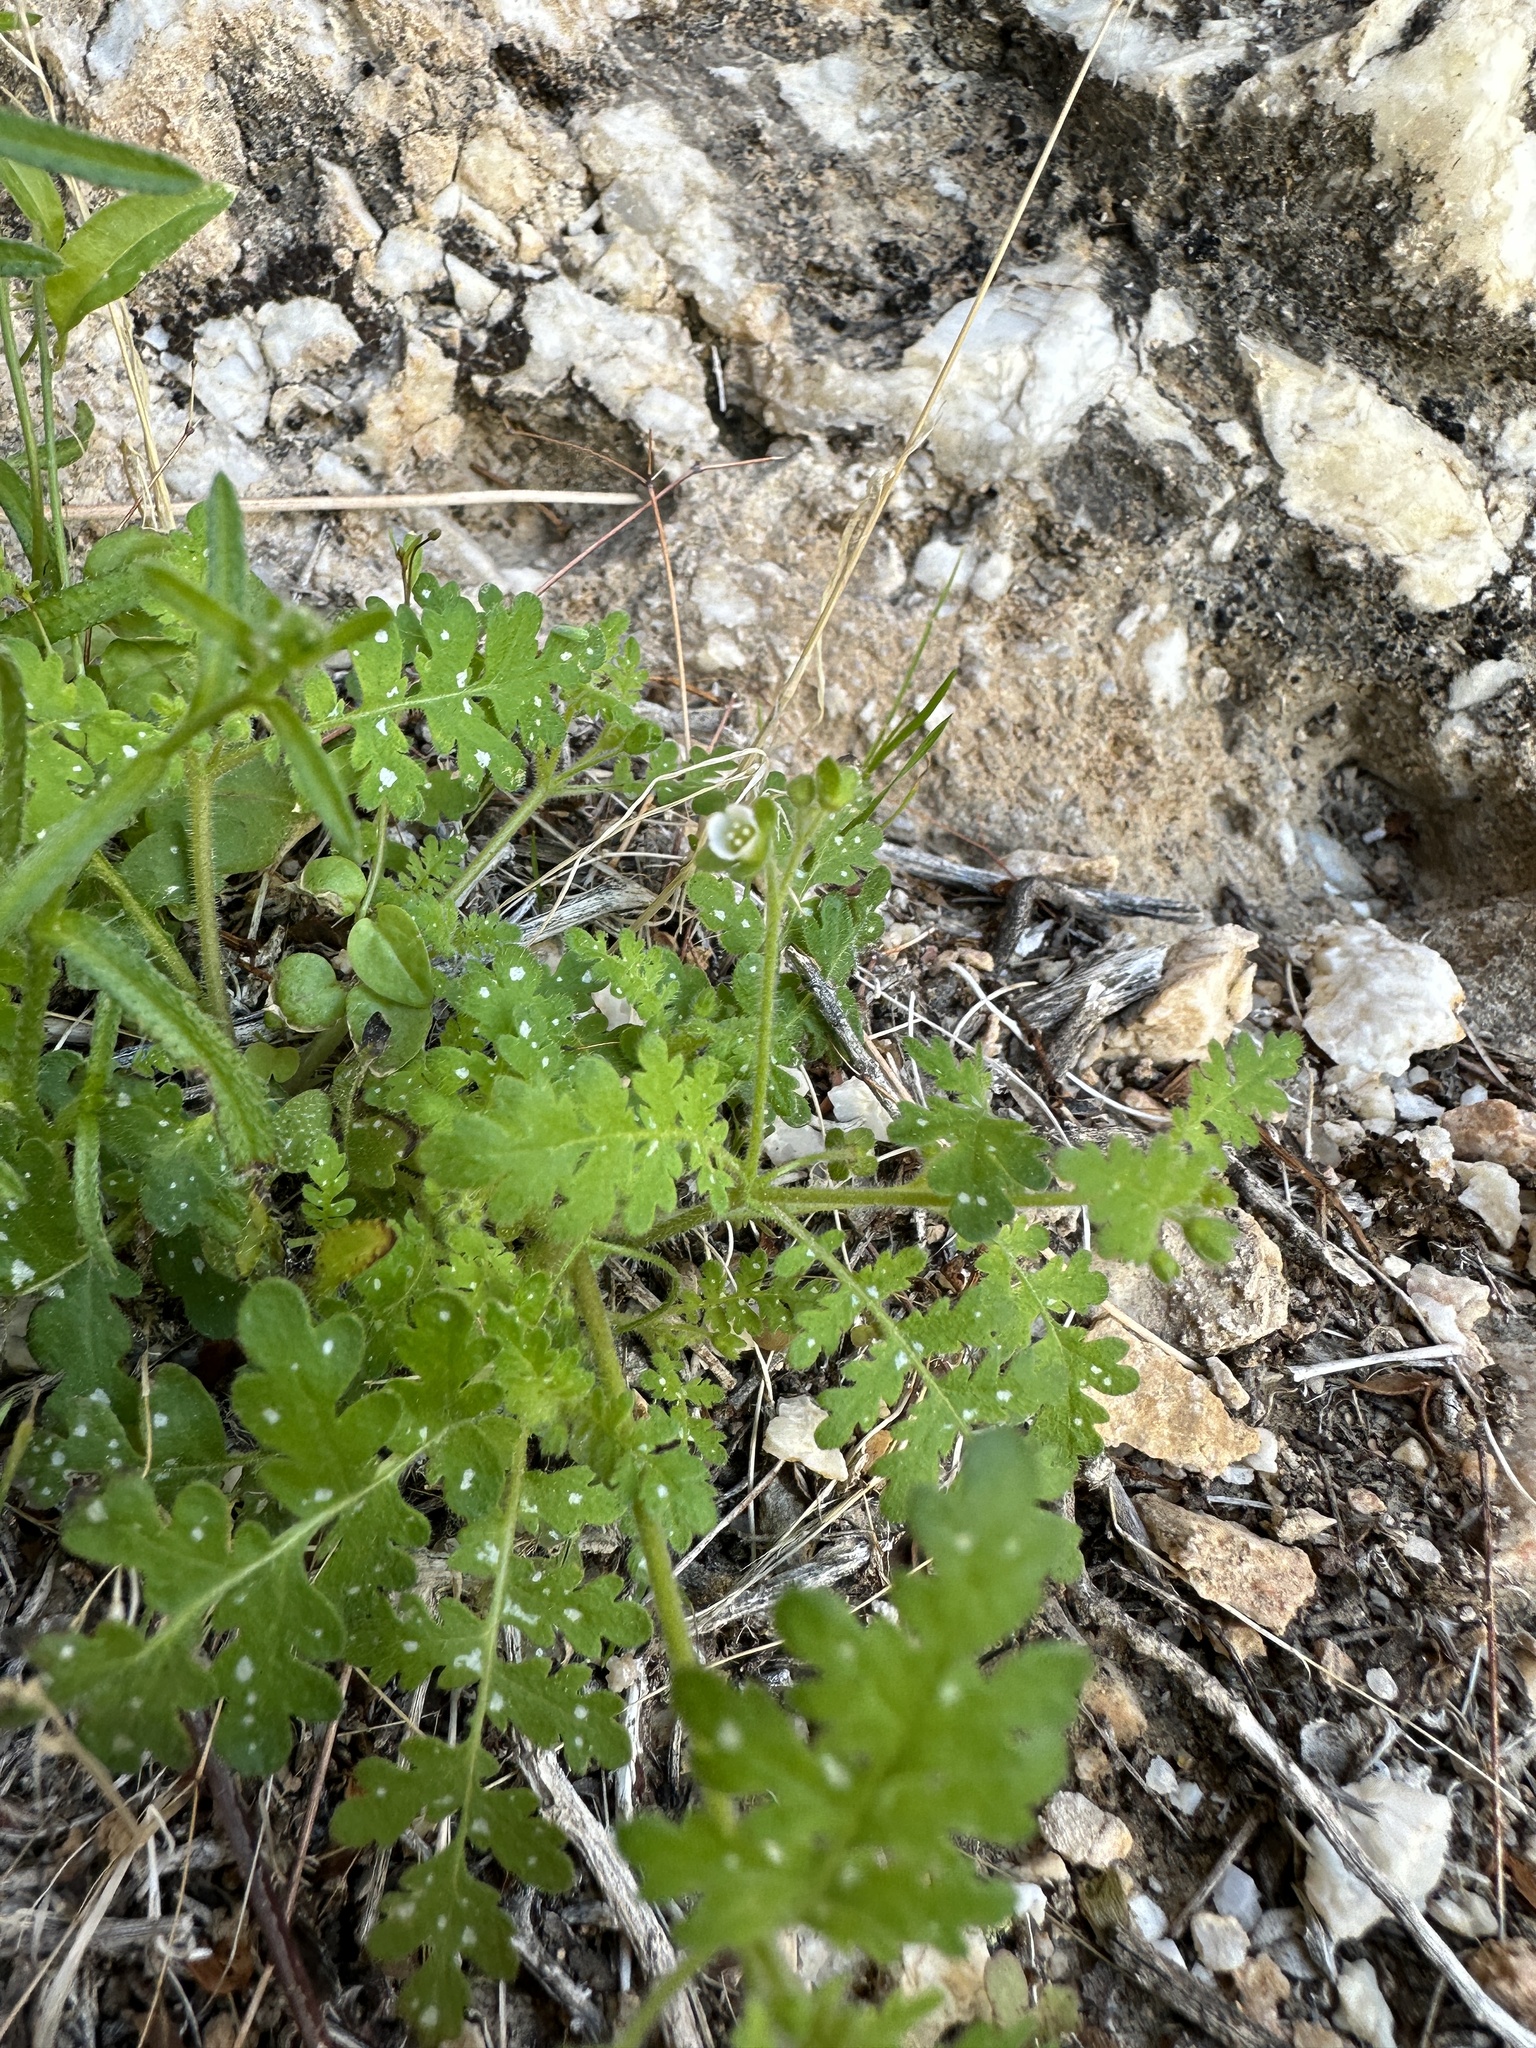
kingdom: Plantae
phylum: Tracheophyta
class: Magnoliopsida
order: Boraginales
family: Hydrophyllaceae
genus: Eucrypta
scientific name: Eucrypta chrysanthemifolia
